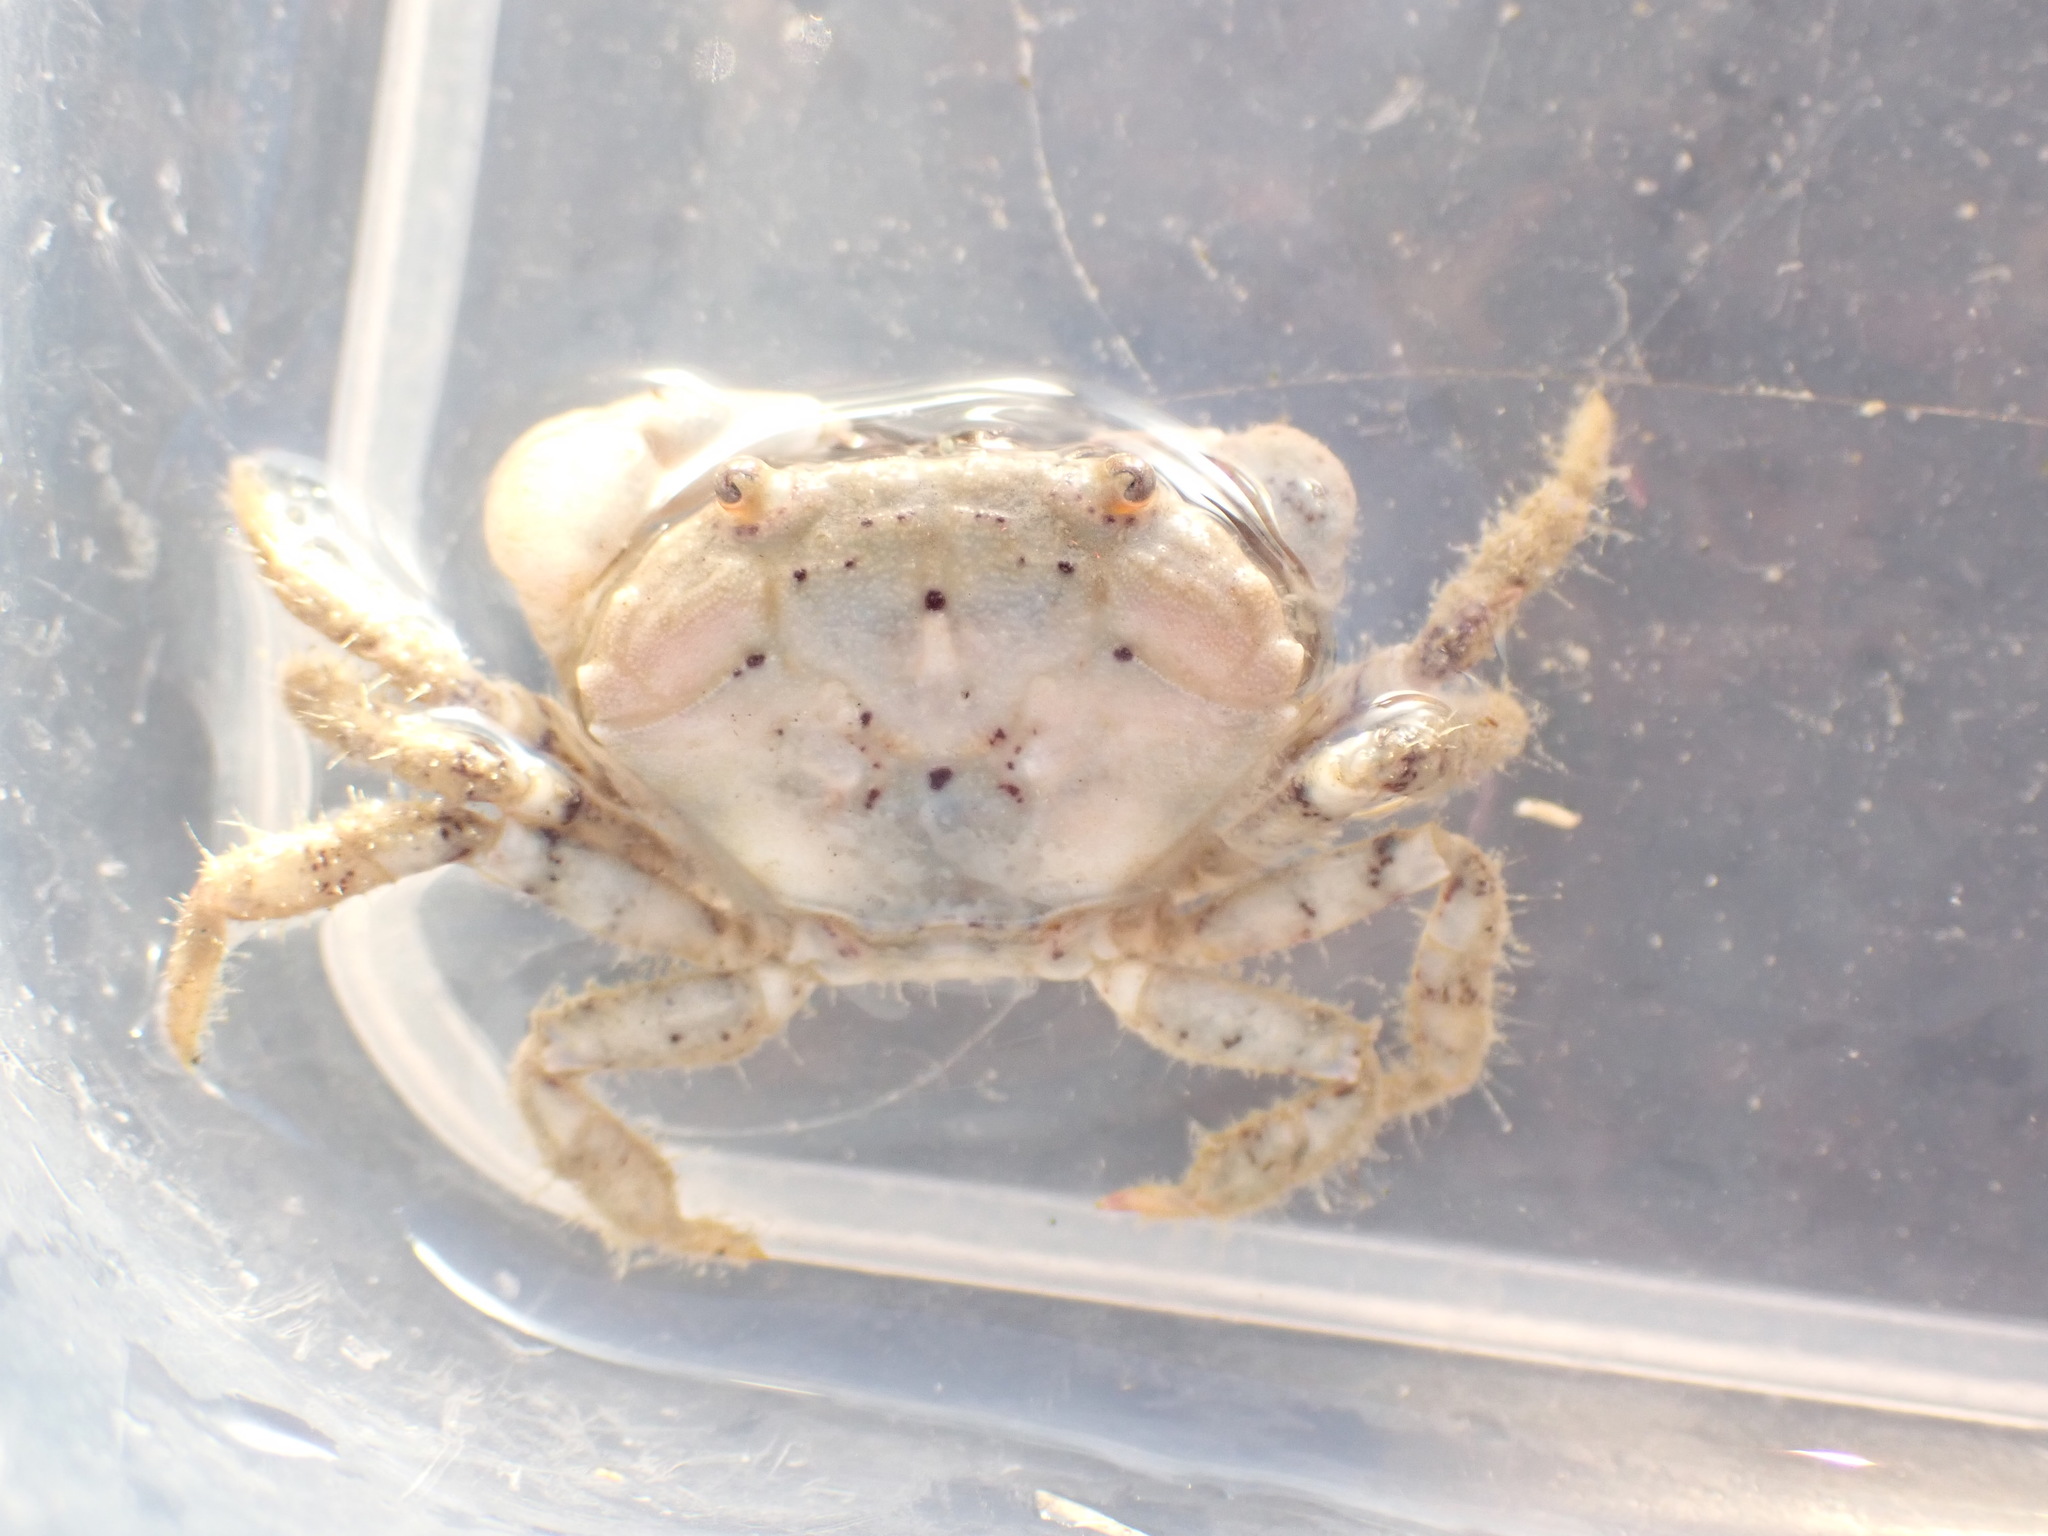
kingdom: Animalia
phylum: Arthropoda
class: Malacostraca
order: Decapoda
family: Oziidae
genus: Ozius
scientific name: Ozius deplanatus
